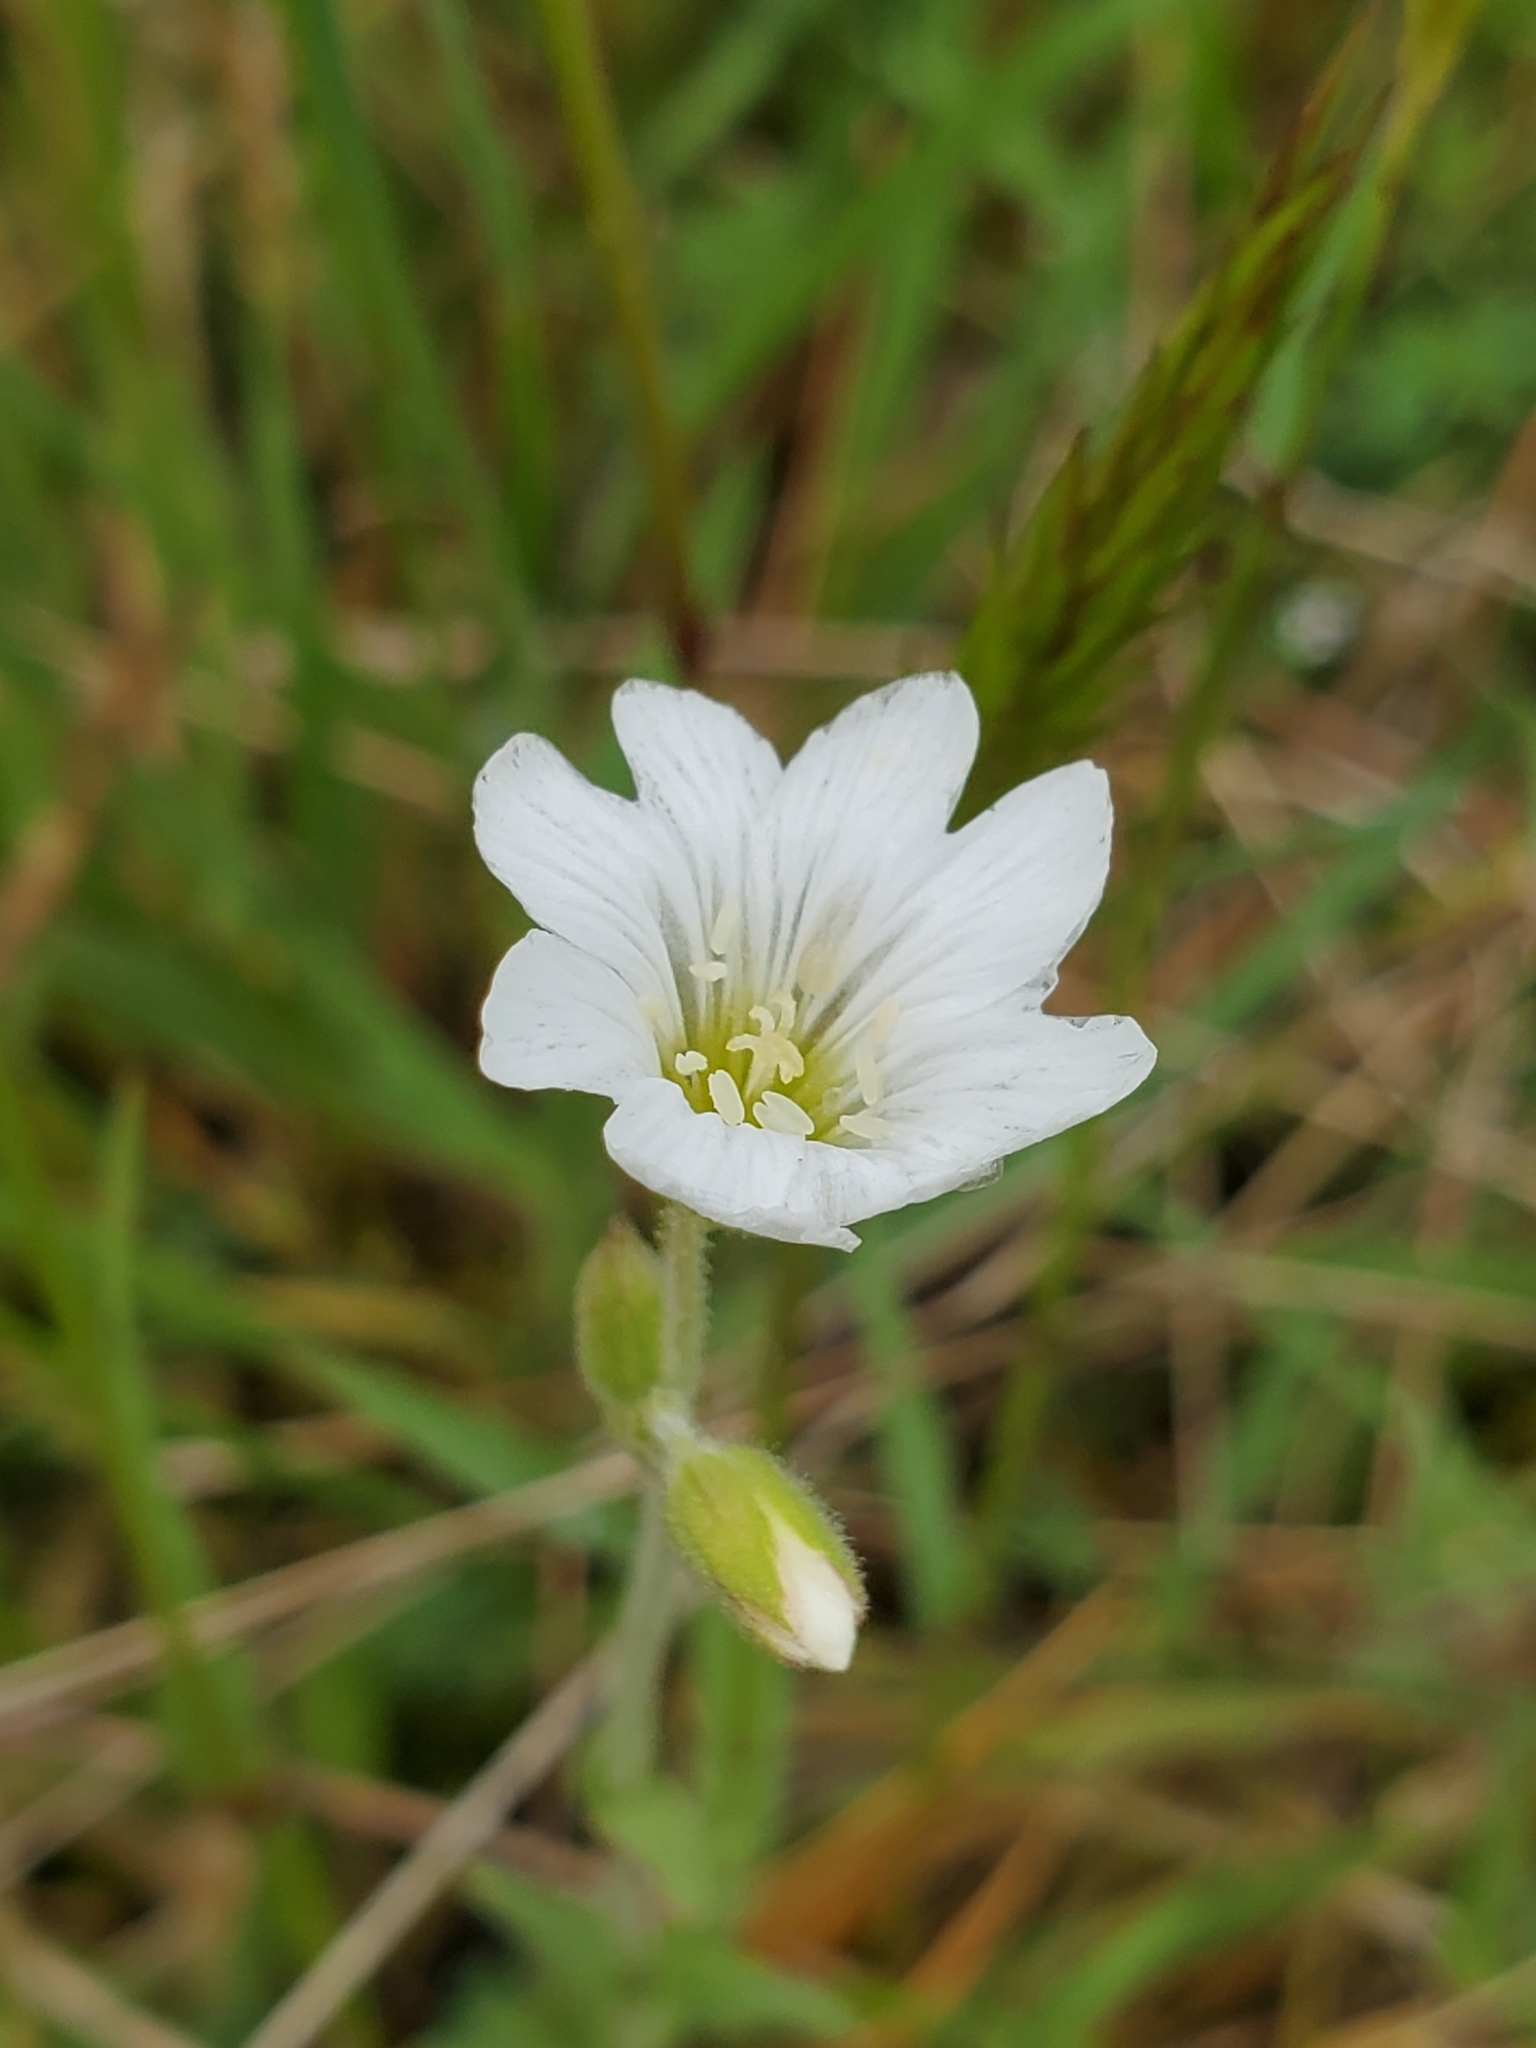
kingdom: Plantae
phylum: Tracheophyta
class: Magnoliopsida
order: Caryophyllales
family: Caryophyllaceae
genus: Cerastium
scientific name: Cerastium arvense
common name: Field mouse-ear
